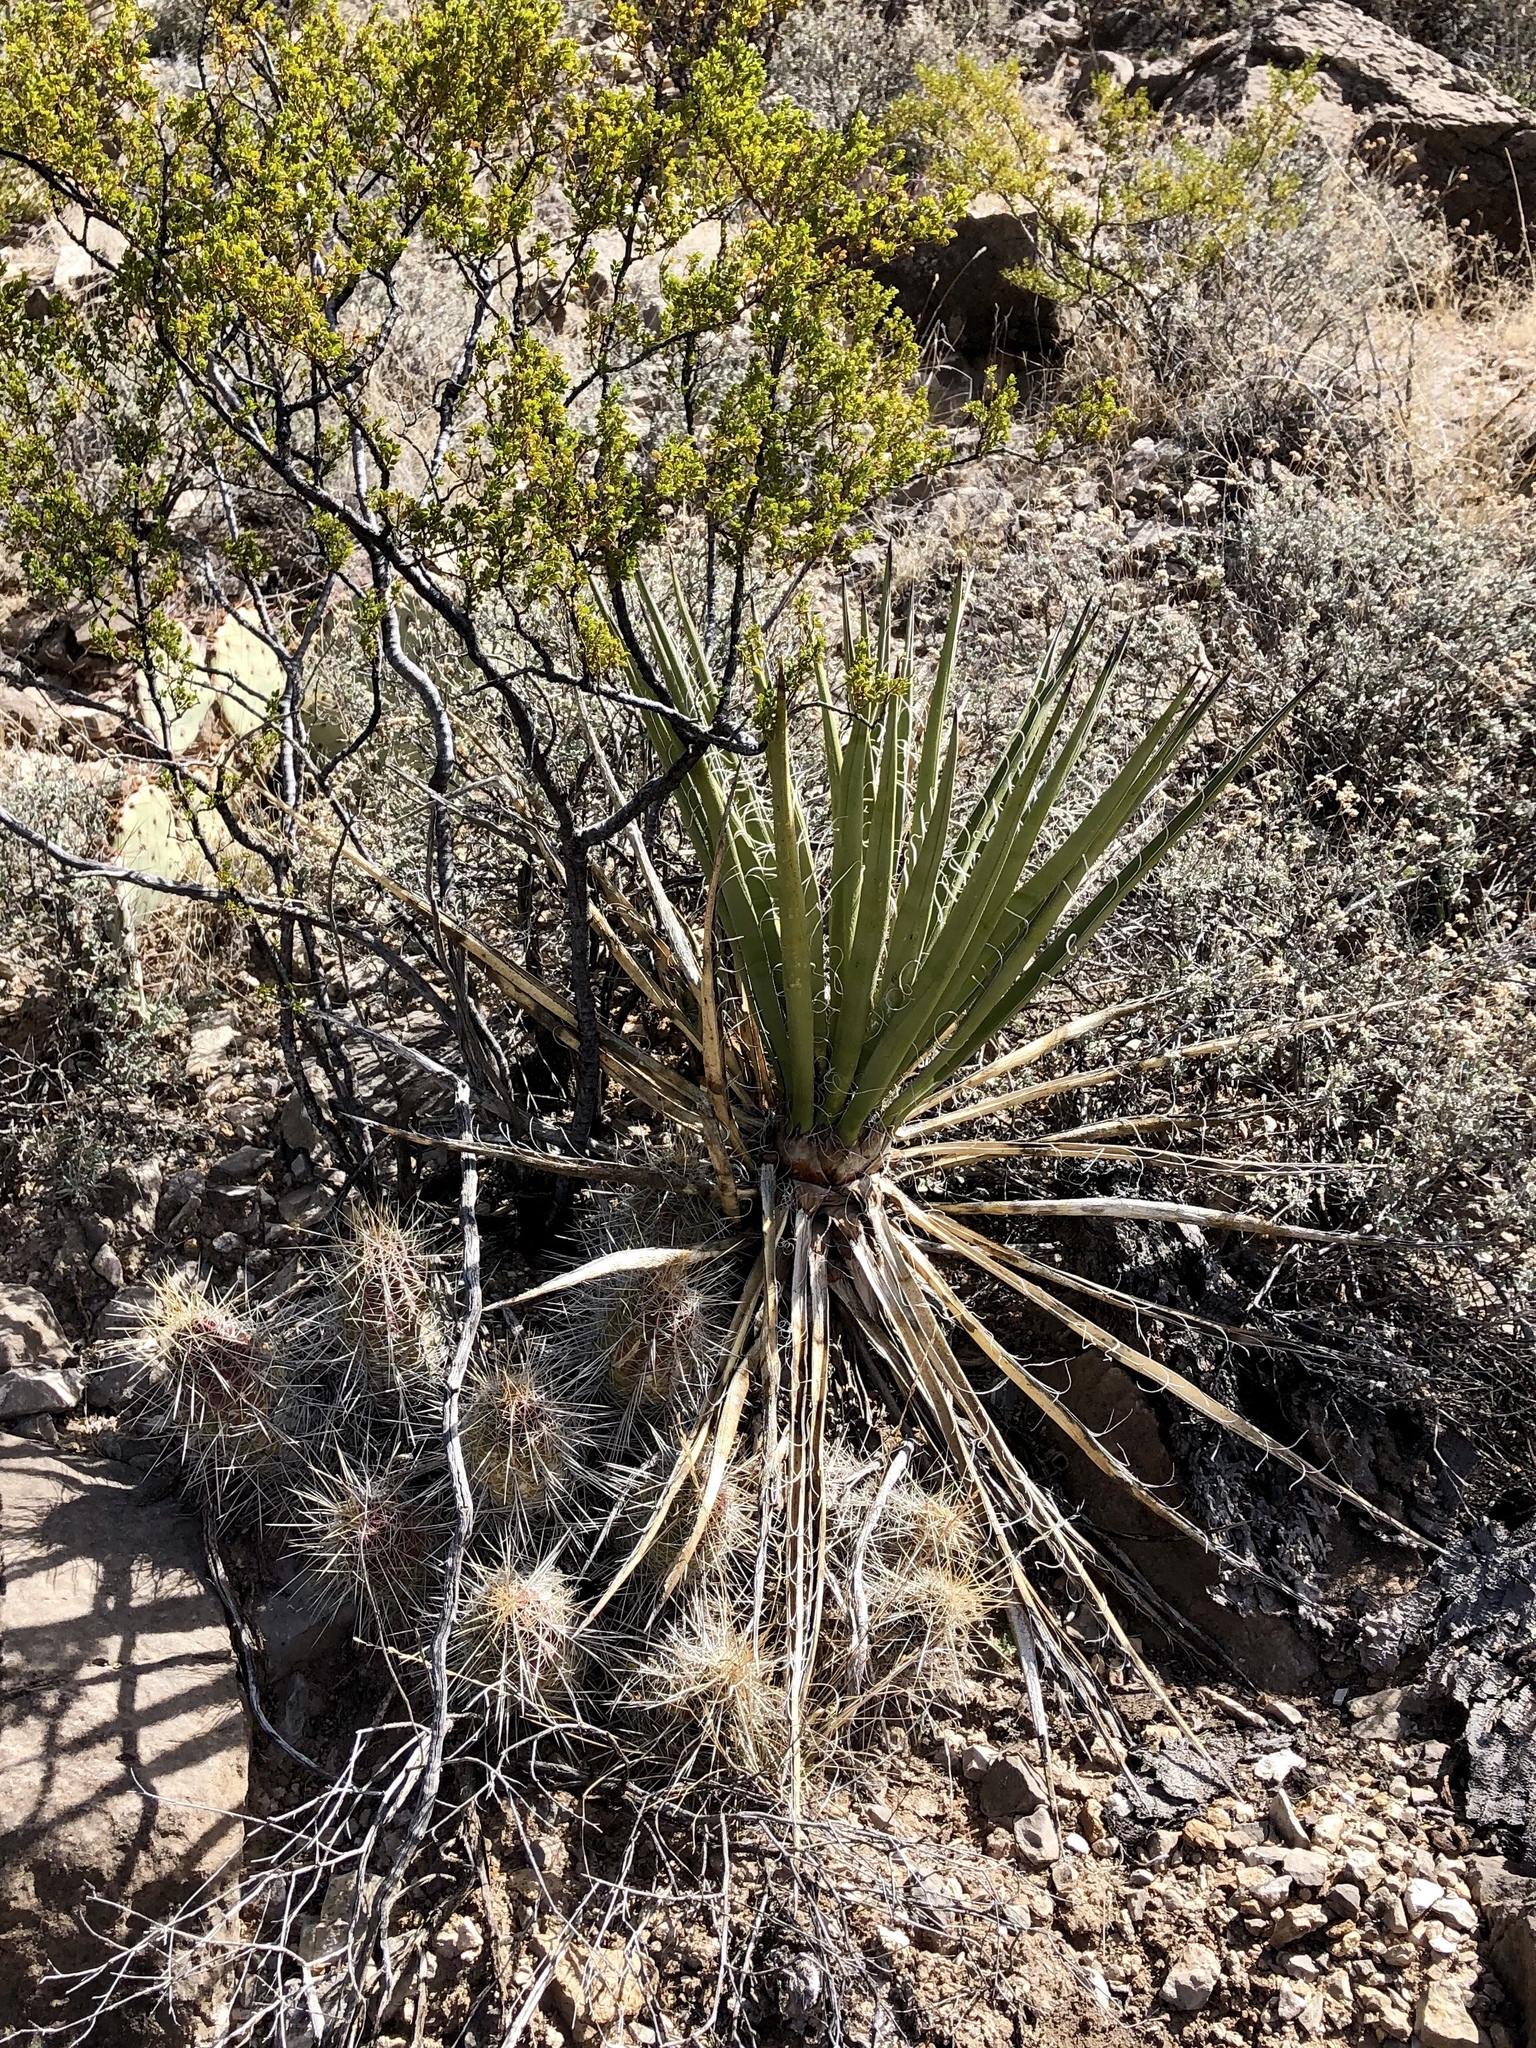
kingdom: Plantae
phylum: Tracheophyta
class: Liliopsida
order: Asparagales
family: Asparagaceae
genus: Yucca
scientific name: Yucca treculiana
